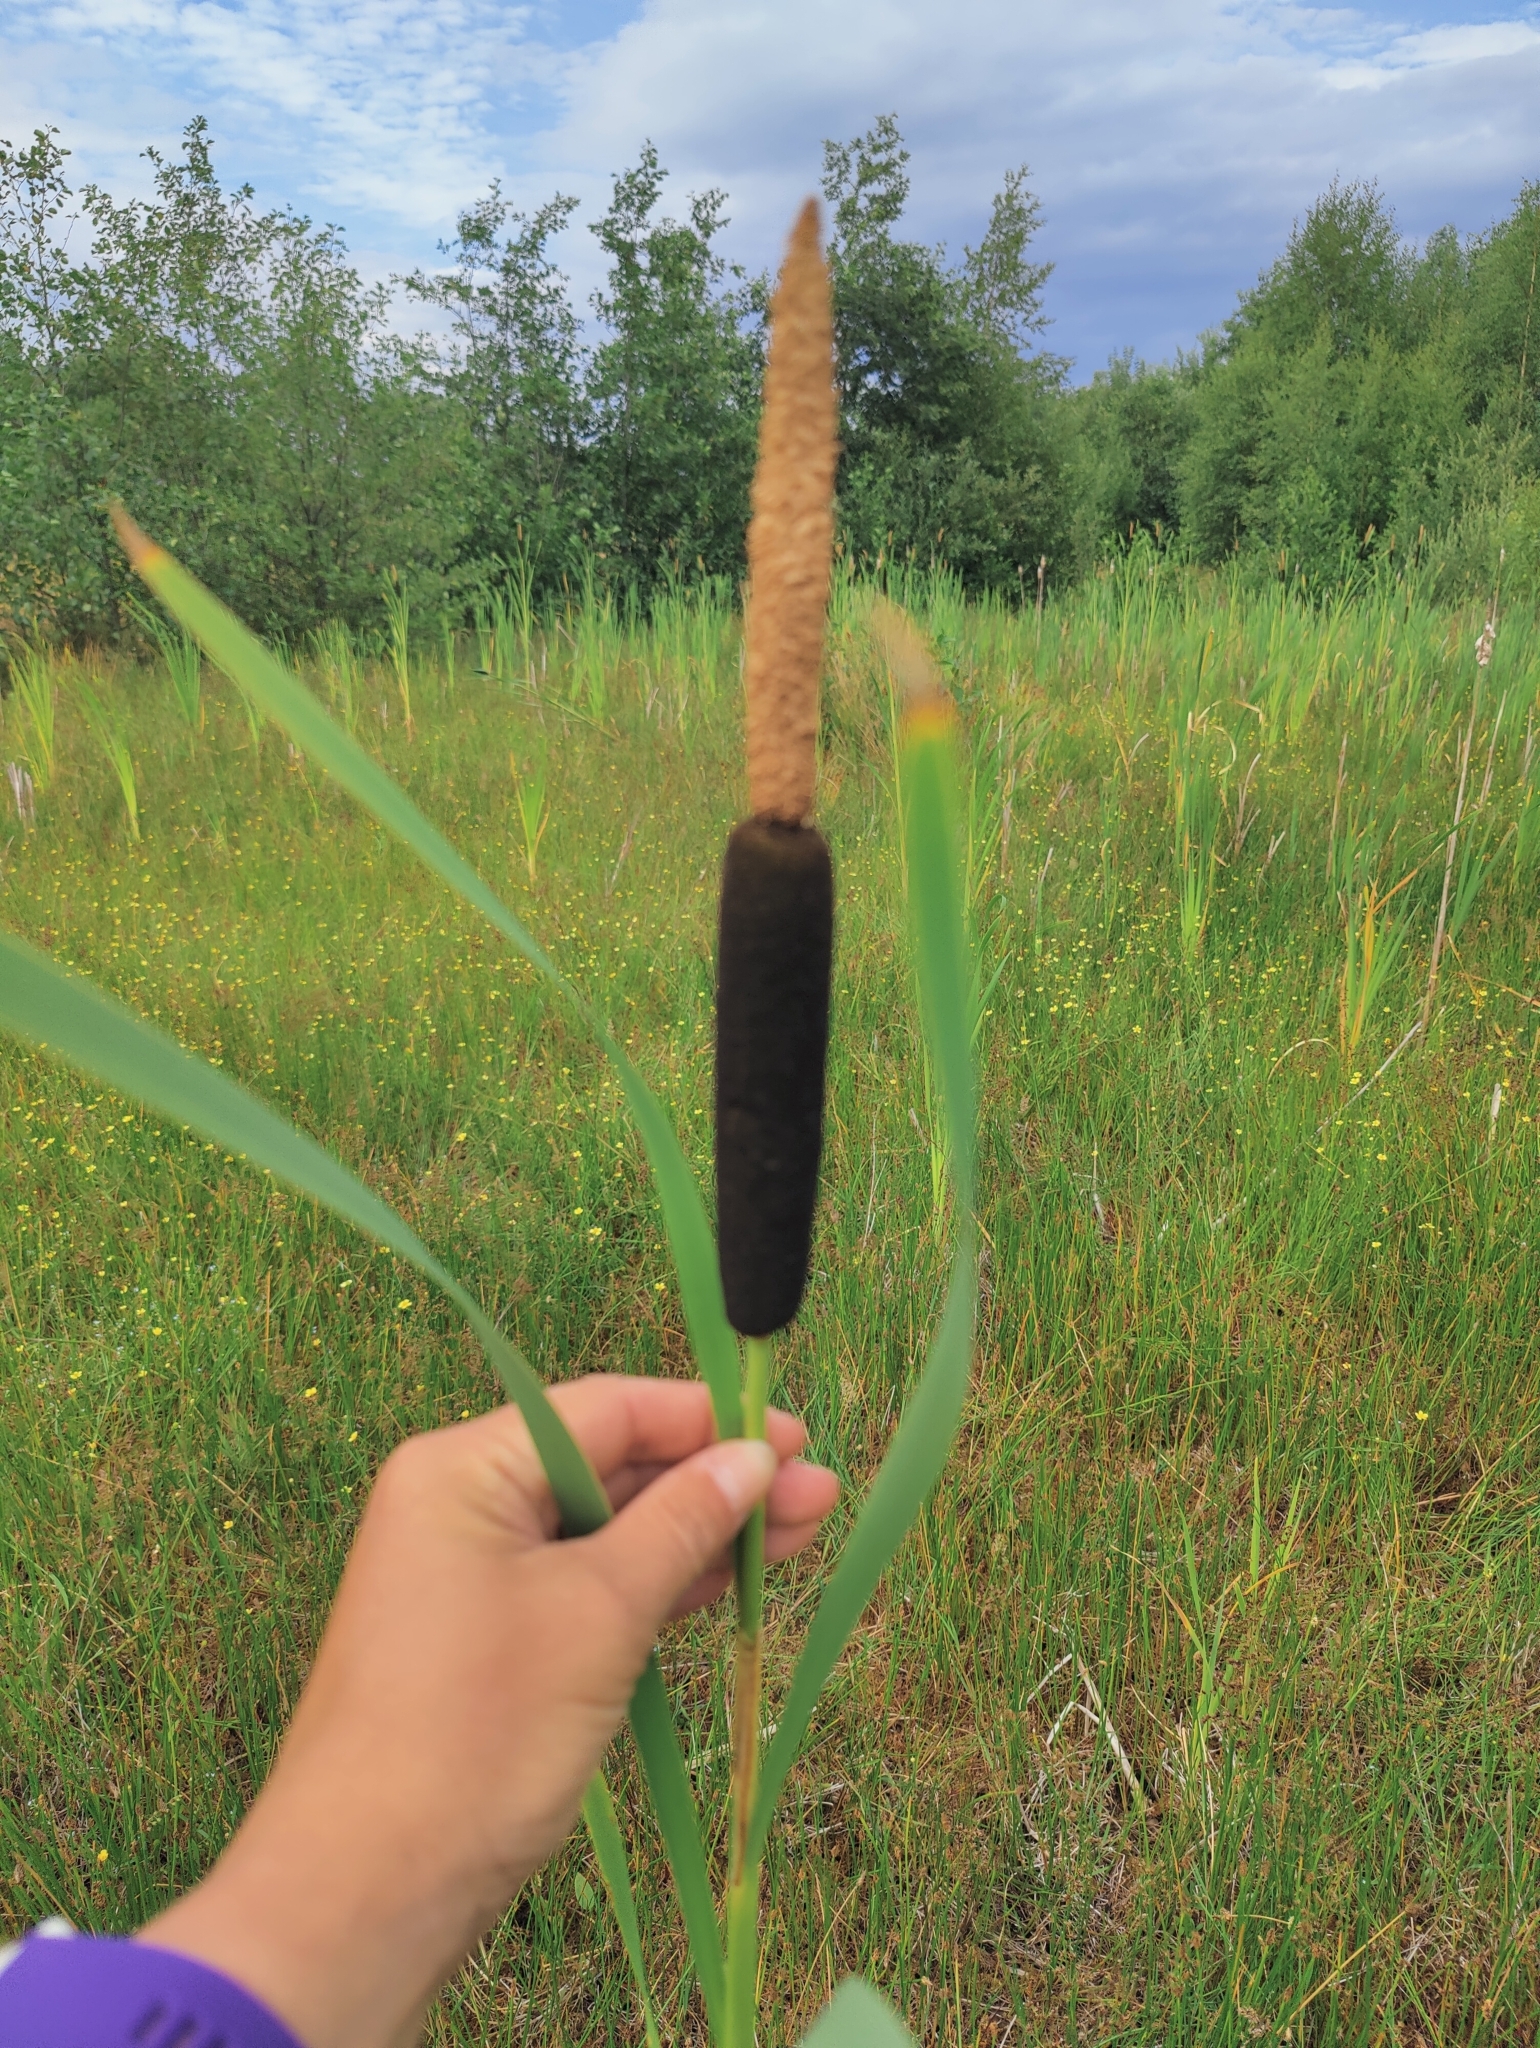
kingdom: Plantae
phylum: Tracheophyta
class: Liliopsida
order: Poales
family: Typhaceae
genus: Typha
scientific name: Typha latifolia
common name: Broadleaf cattail
